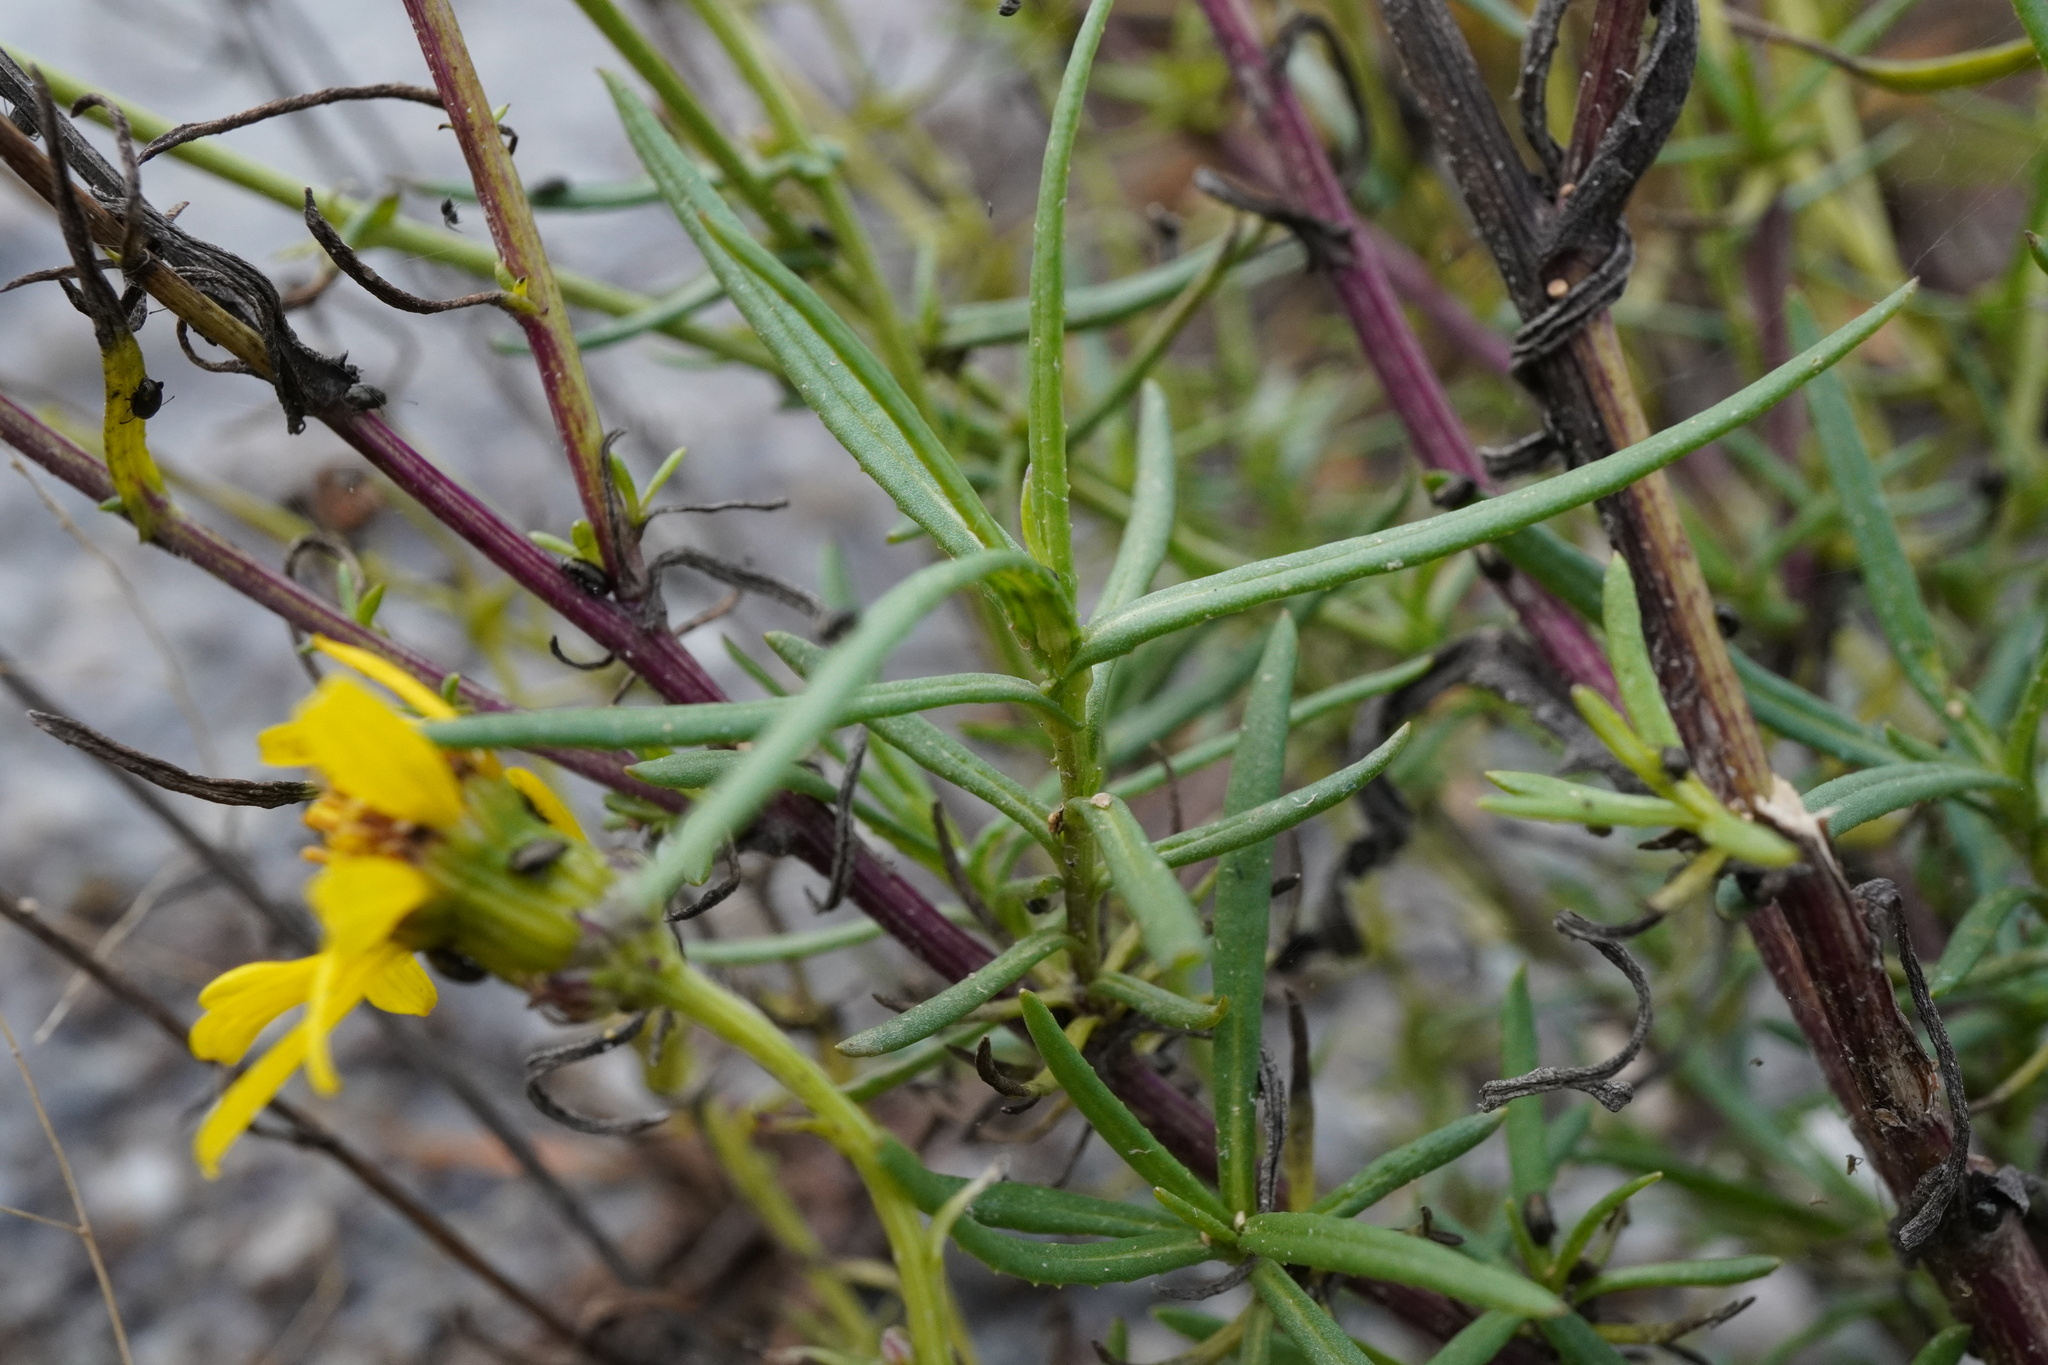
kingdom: Plantae
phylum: Tracheophyta
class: Magnoliopsida
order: Asterales
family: Asteraceae
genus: Senecio
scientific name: Senecio inaequidens
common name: Narrow-leaved ragwort
